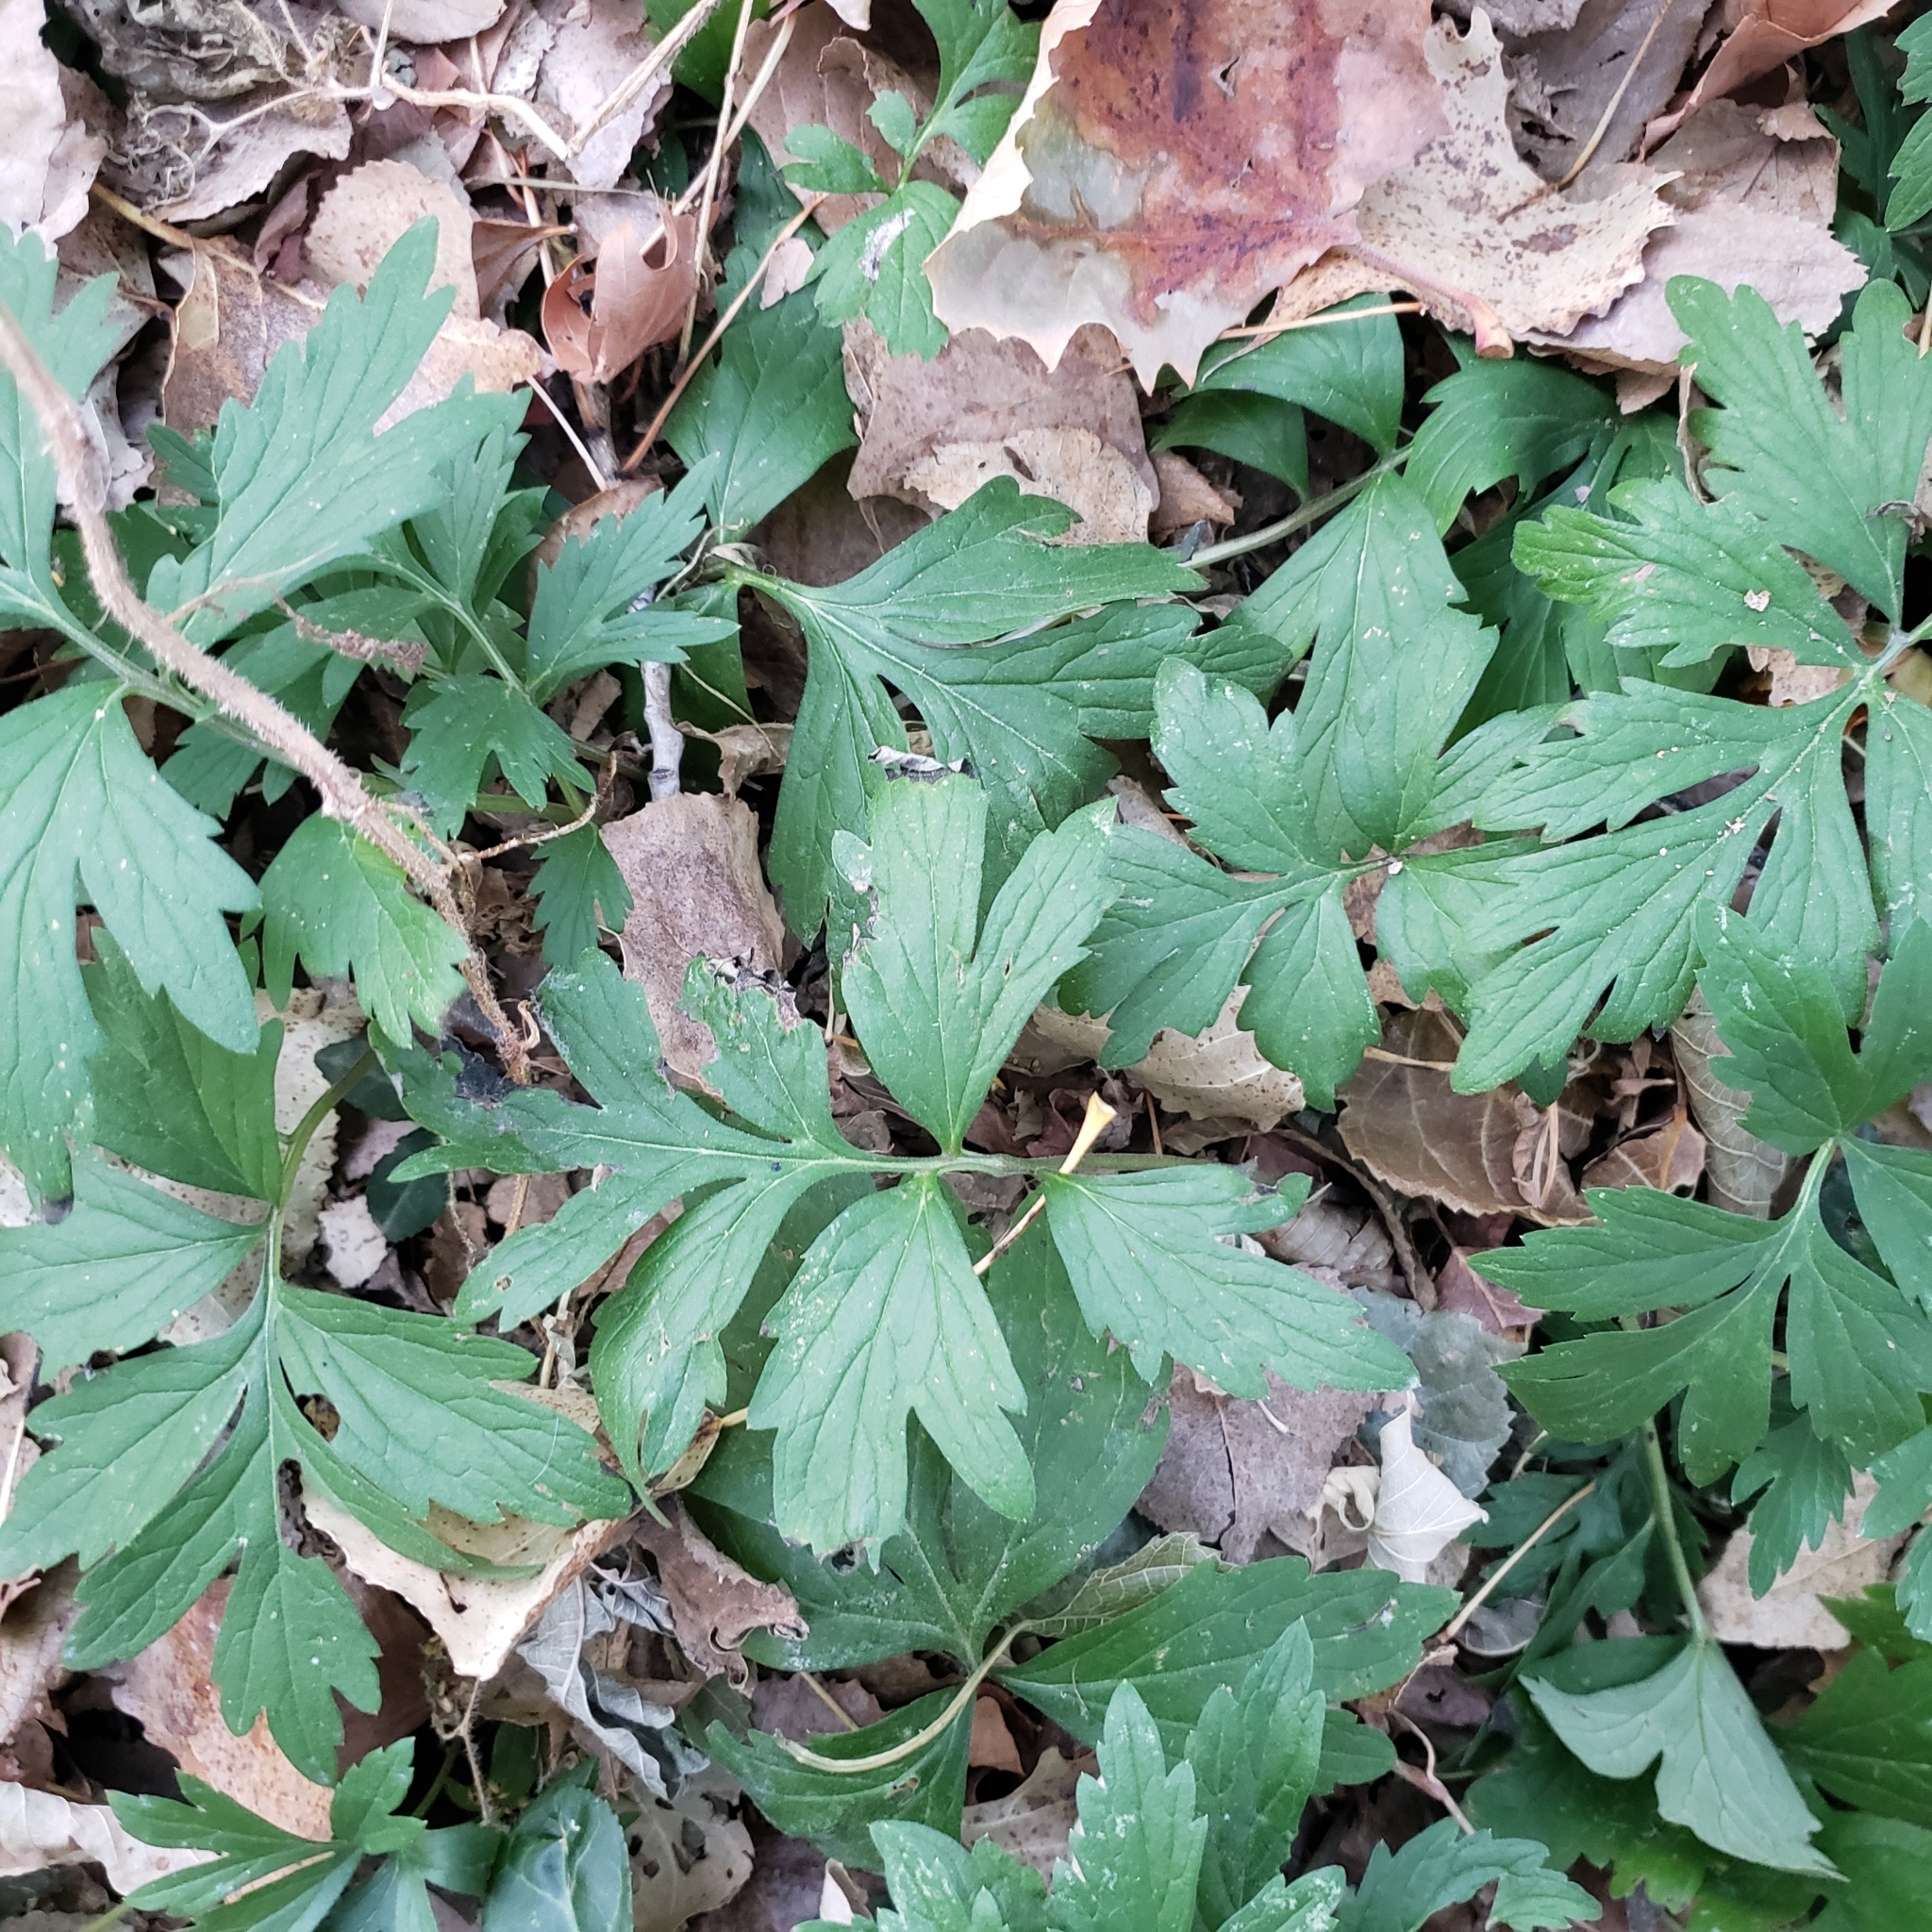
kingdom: Plantae
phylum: Tracheophyta
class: Magnoliopsida
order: Boraginales
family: Hydrophyllaceae
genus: Hydrophyllum
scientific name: Hydrophyllum virginianum
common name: Virginia waterleaf
